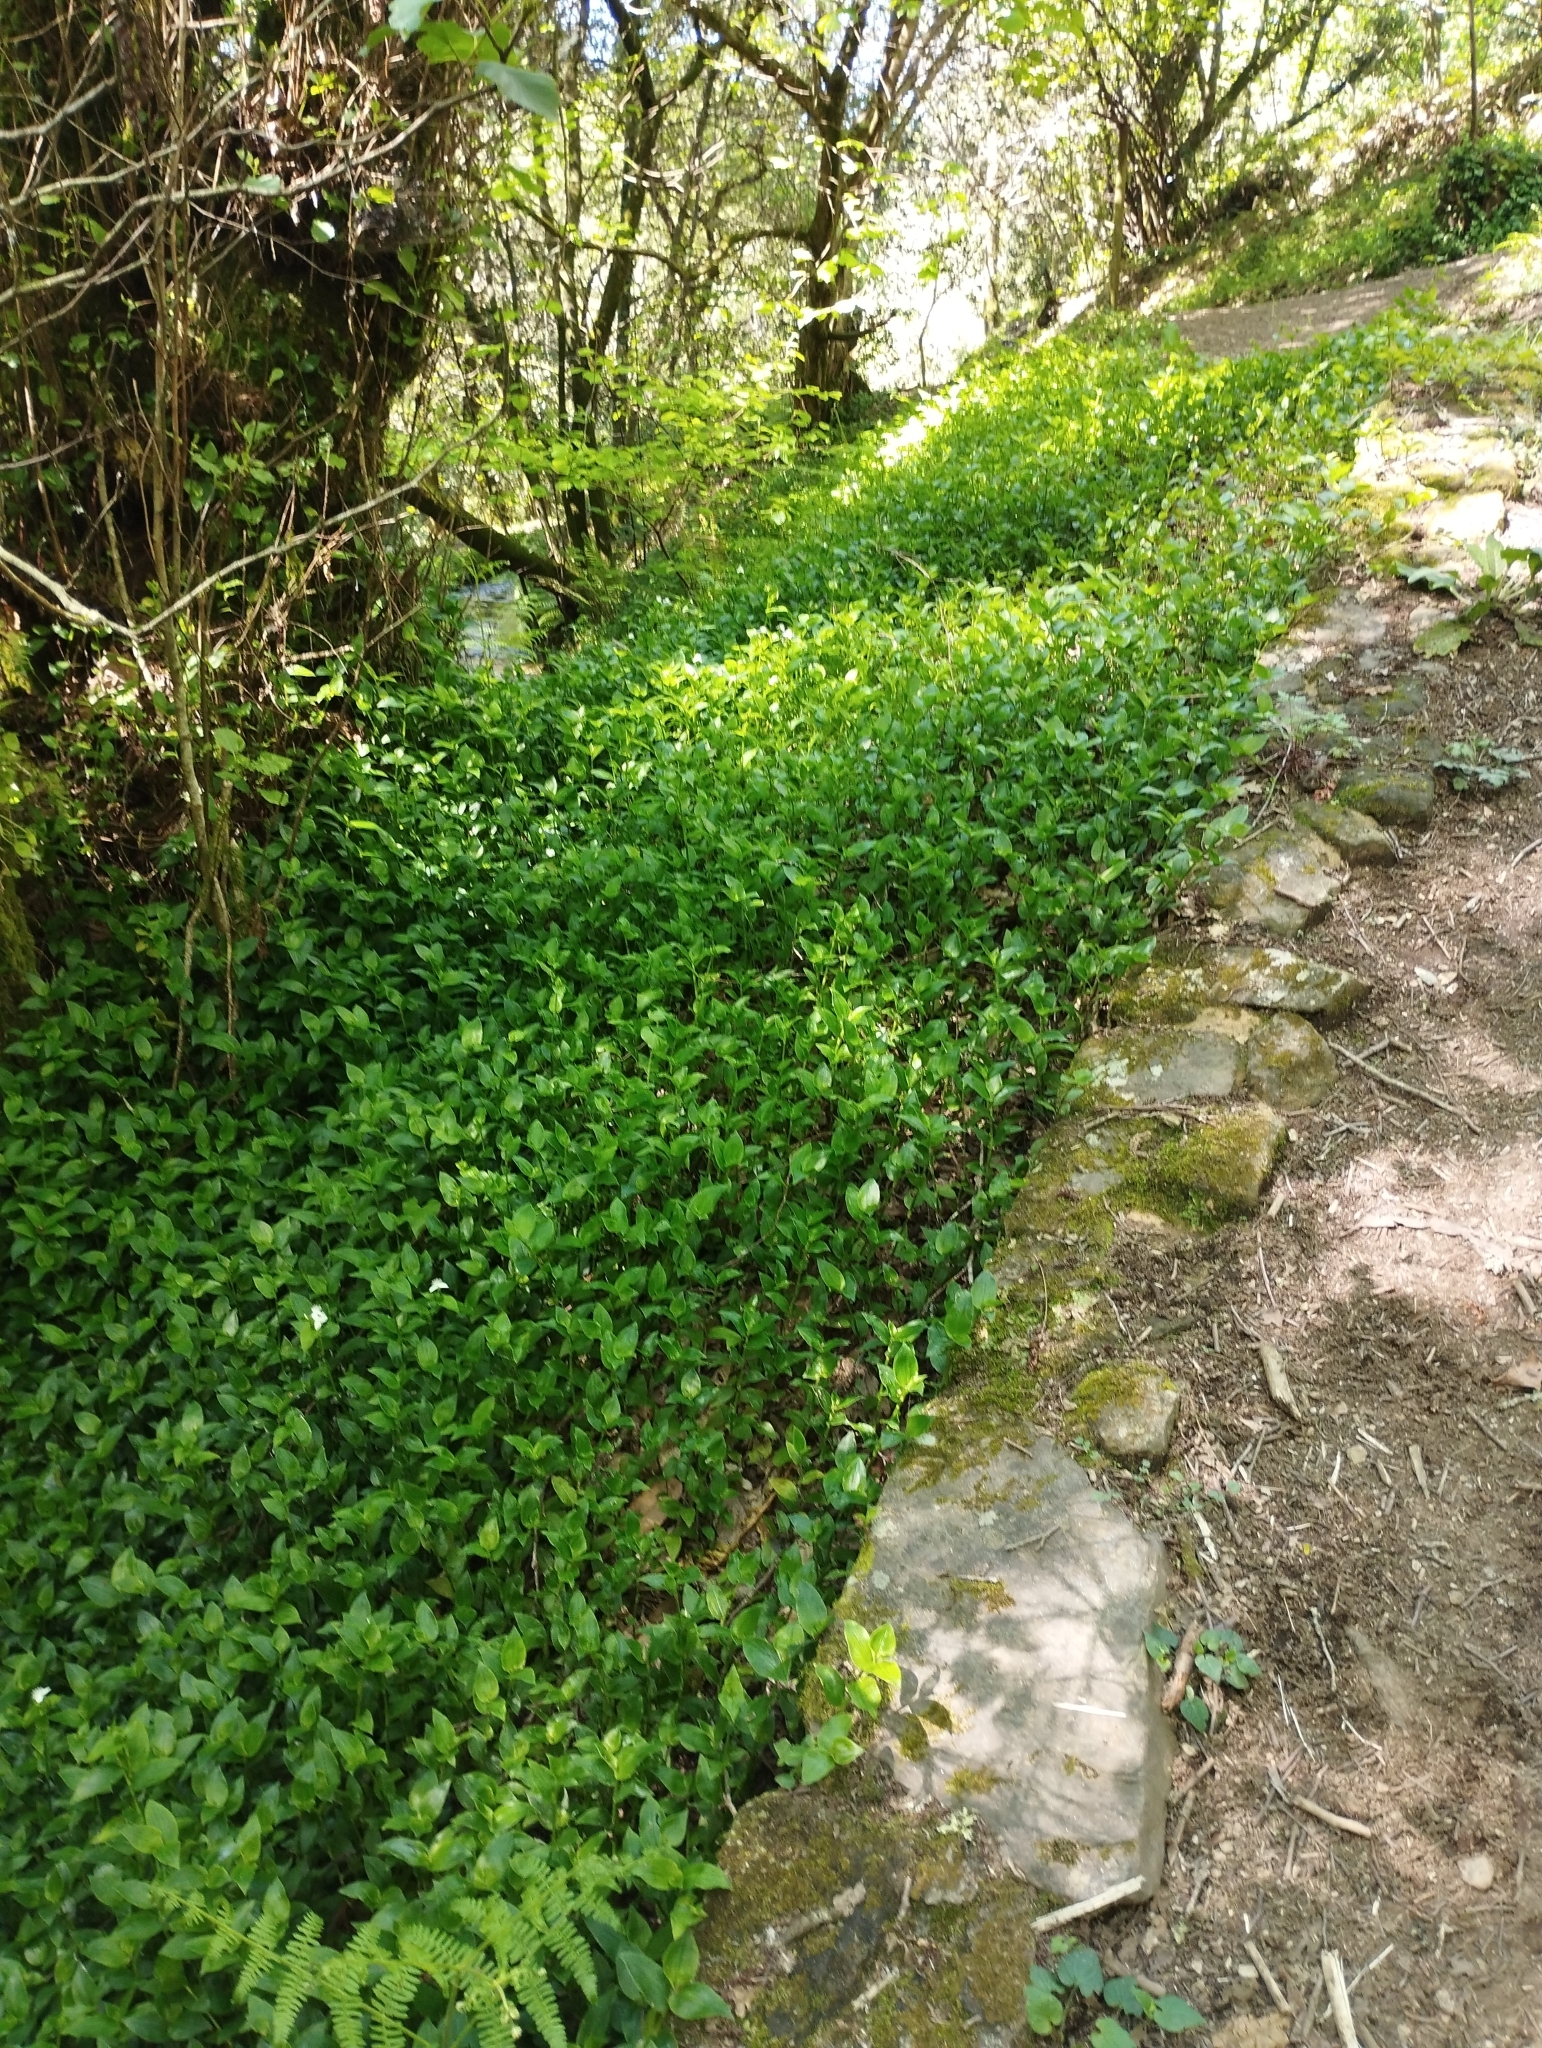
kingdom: Plantae
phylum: Tracheophyta
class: Liliopsida
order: Commelinales
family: Commelinaceae
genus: Tradescantia
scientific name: Tradescantia fluminensis
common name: Wandering-jew
